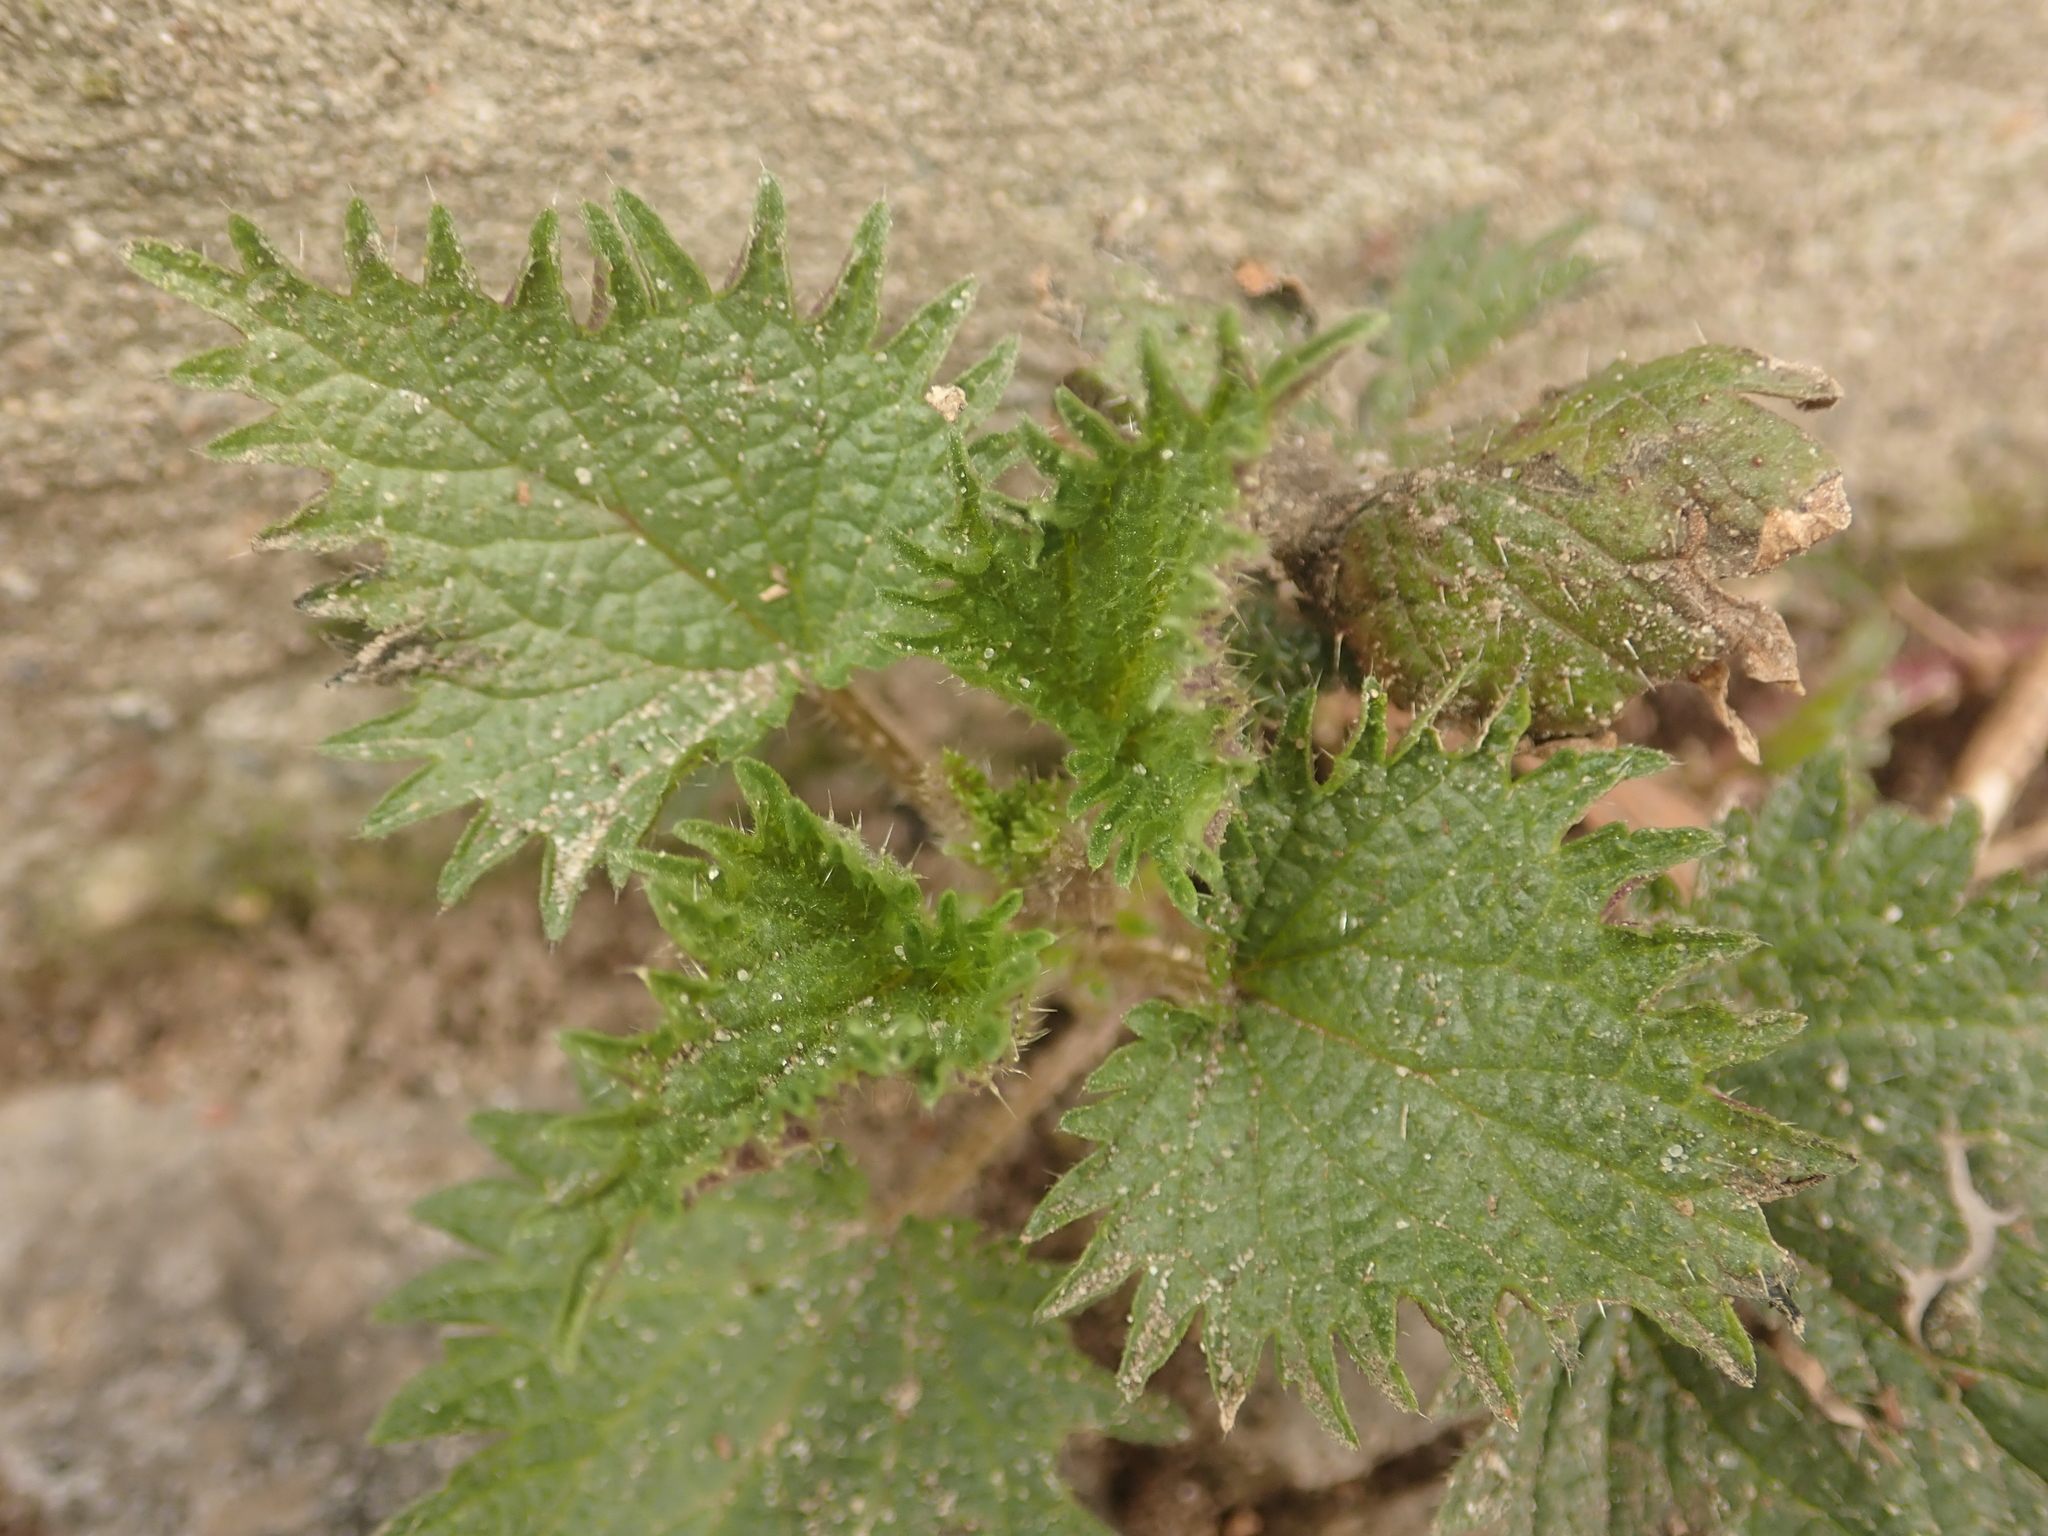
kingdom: Plantae
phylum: Tracheophyta
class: Magnoliopsida
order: Rosales
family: Urticaceae
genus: Urtica
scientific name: Urtica dioica
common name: Common nettle
